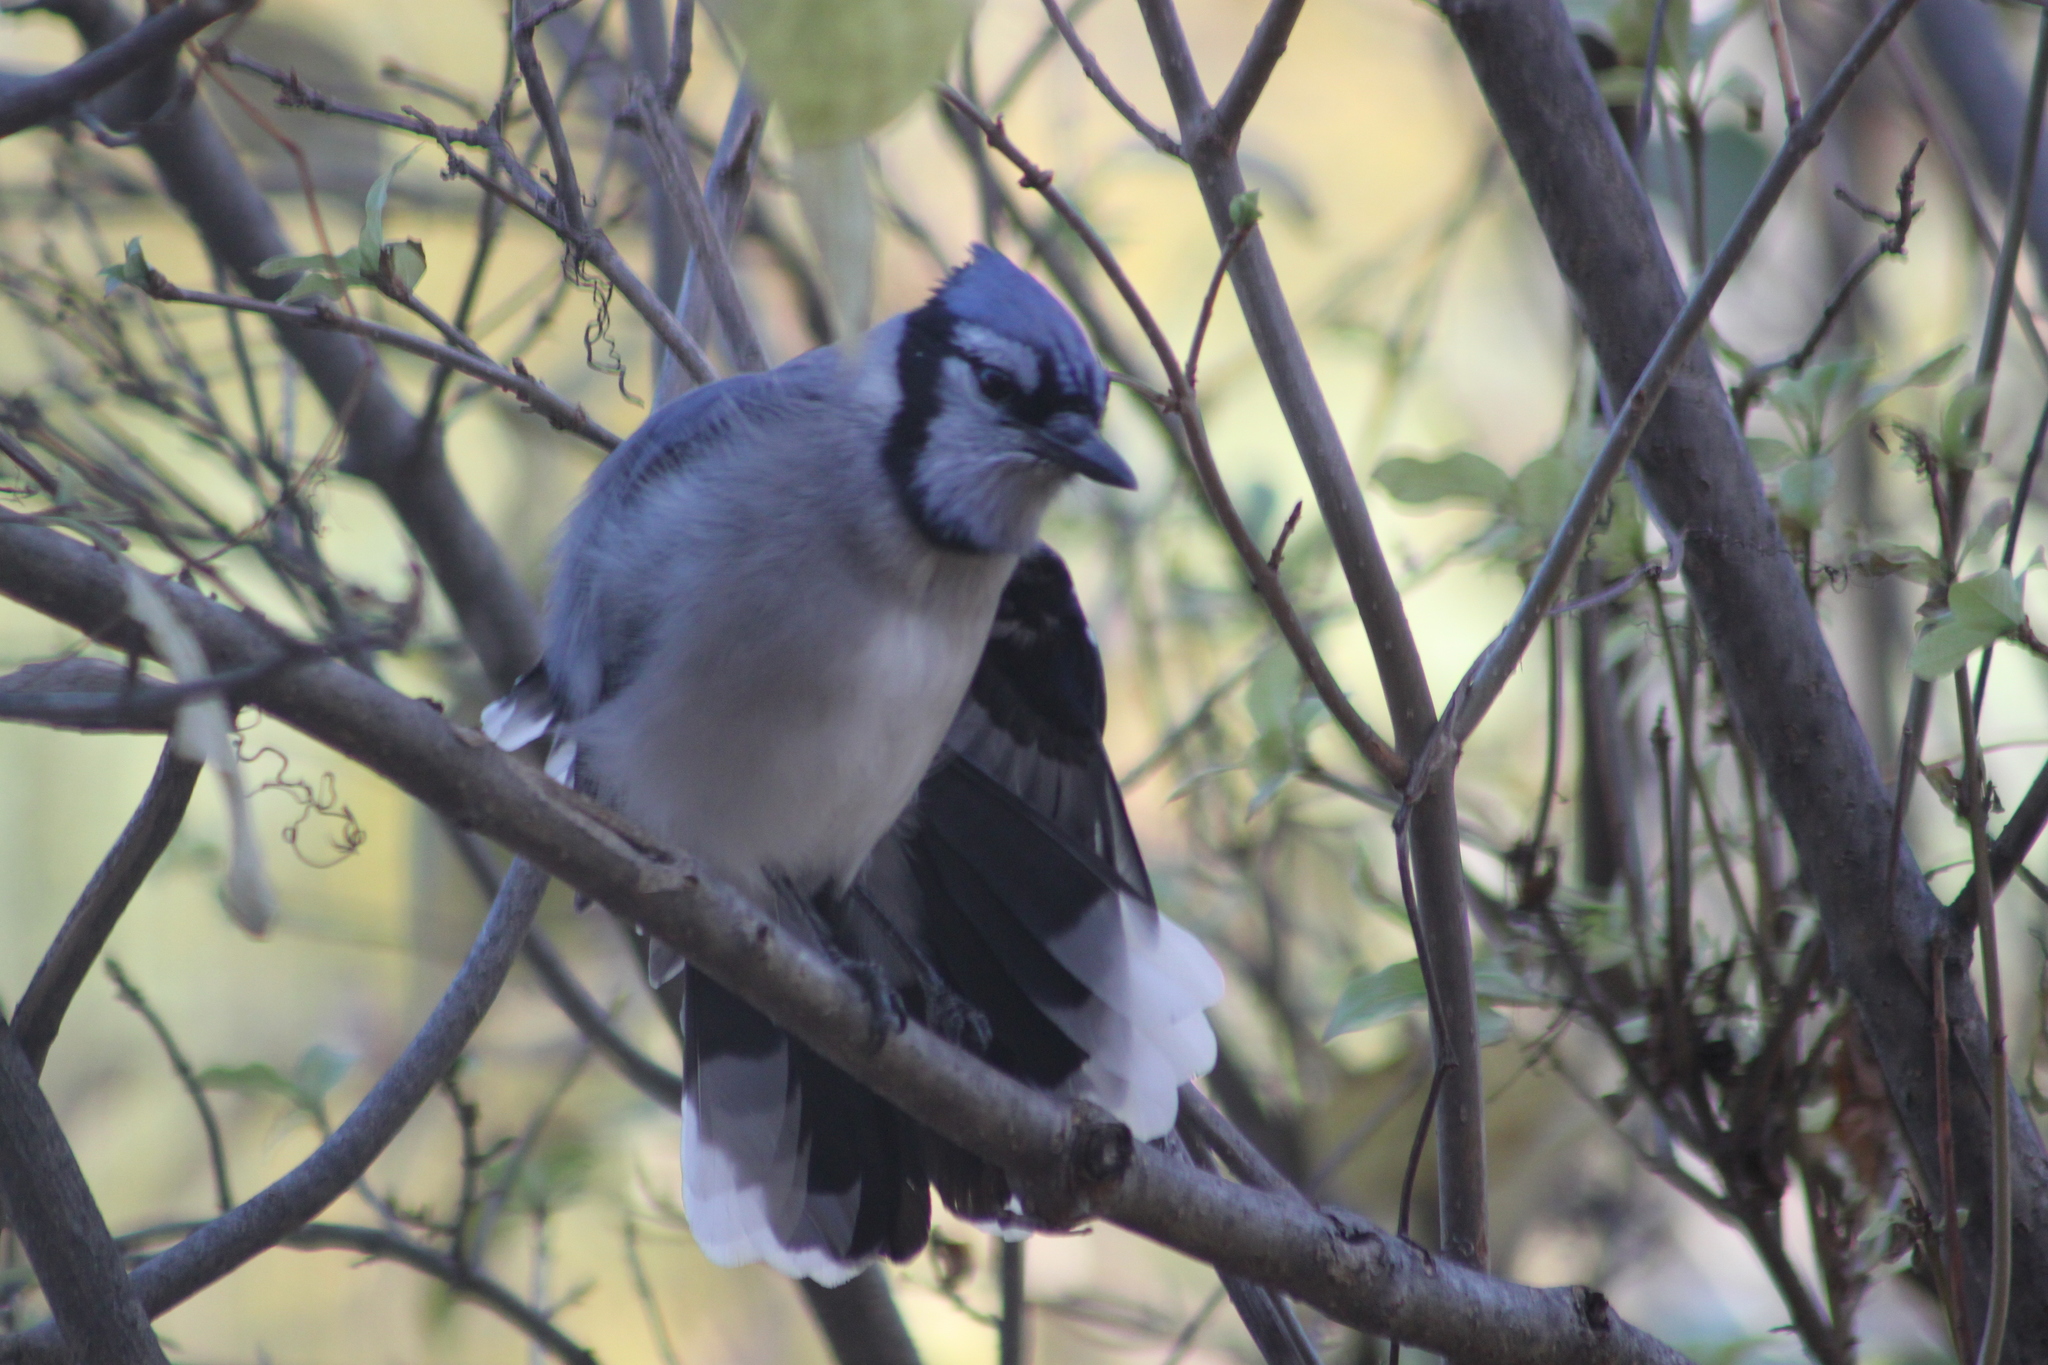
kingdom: Animalia
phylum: Chordata
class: Aves
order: Passeriformes
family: Corvidae
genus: Cyanocitta
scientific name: Cyanocitta cristata
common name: Blue jay
